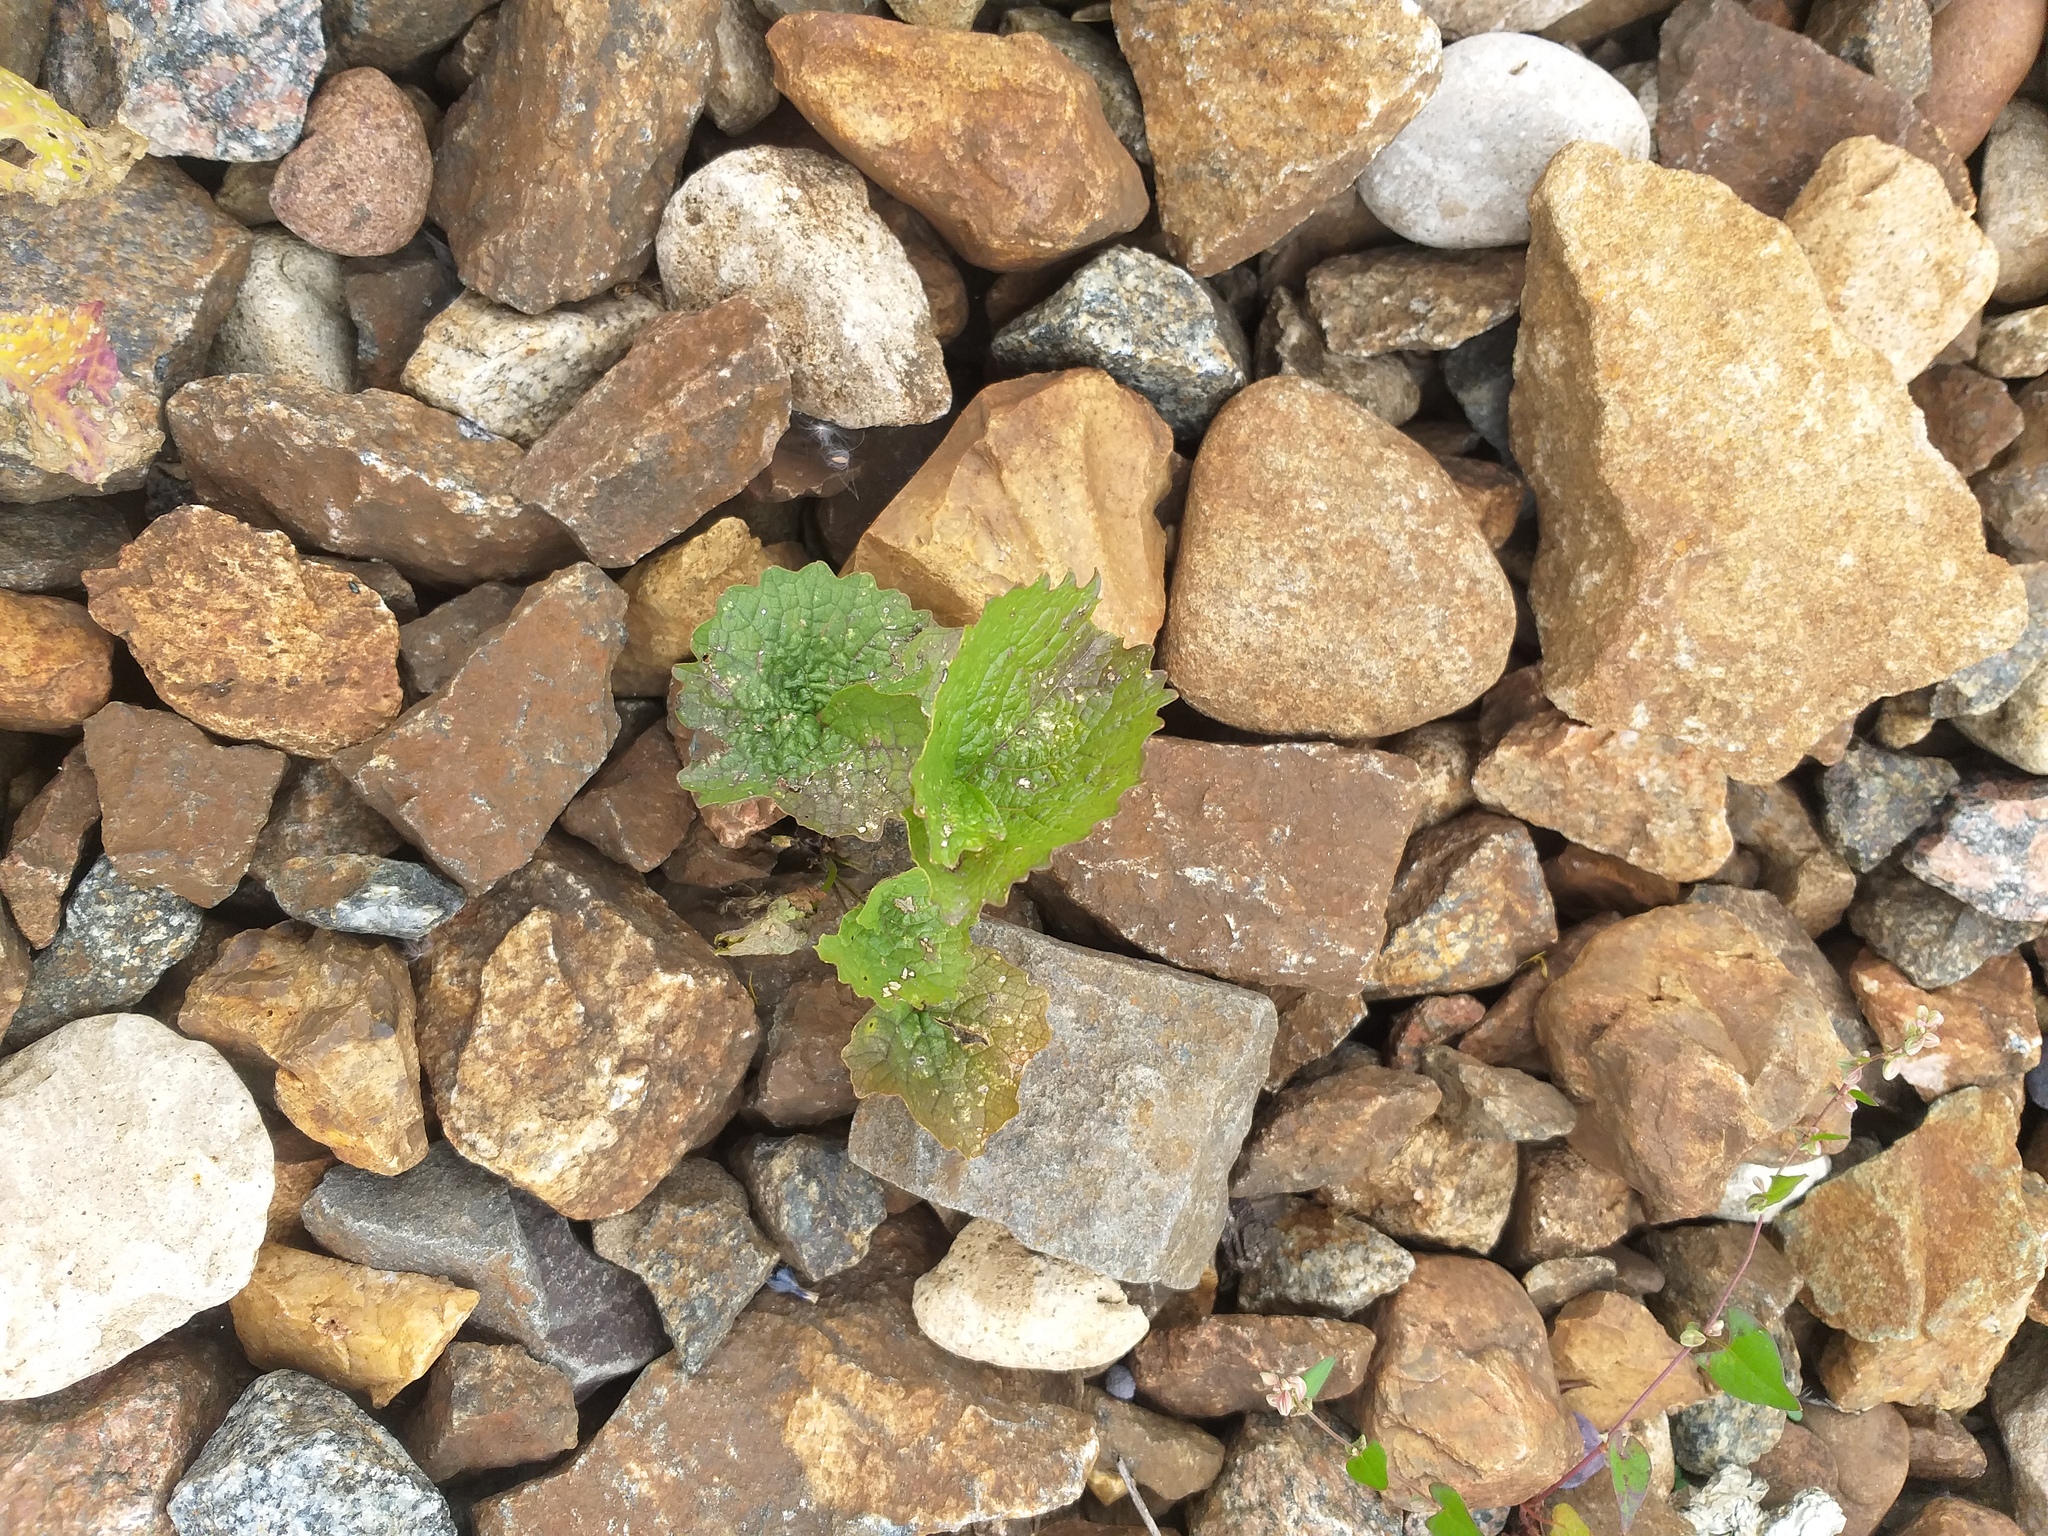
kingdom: Plantae
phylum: Tracheophyta
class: Magnoliopsida
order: Brassicales
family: Brassicaceae
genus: Alliaria
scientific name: Alliaria petiolata
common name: Garlic mustard
